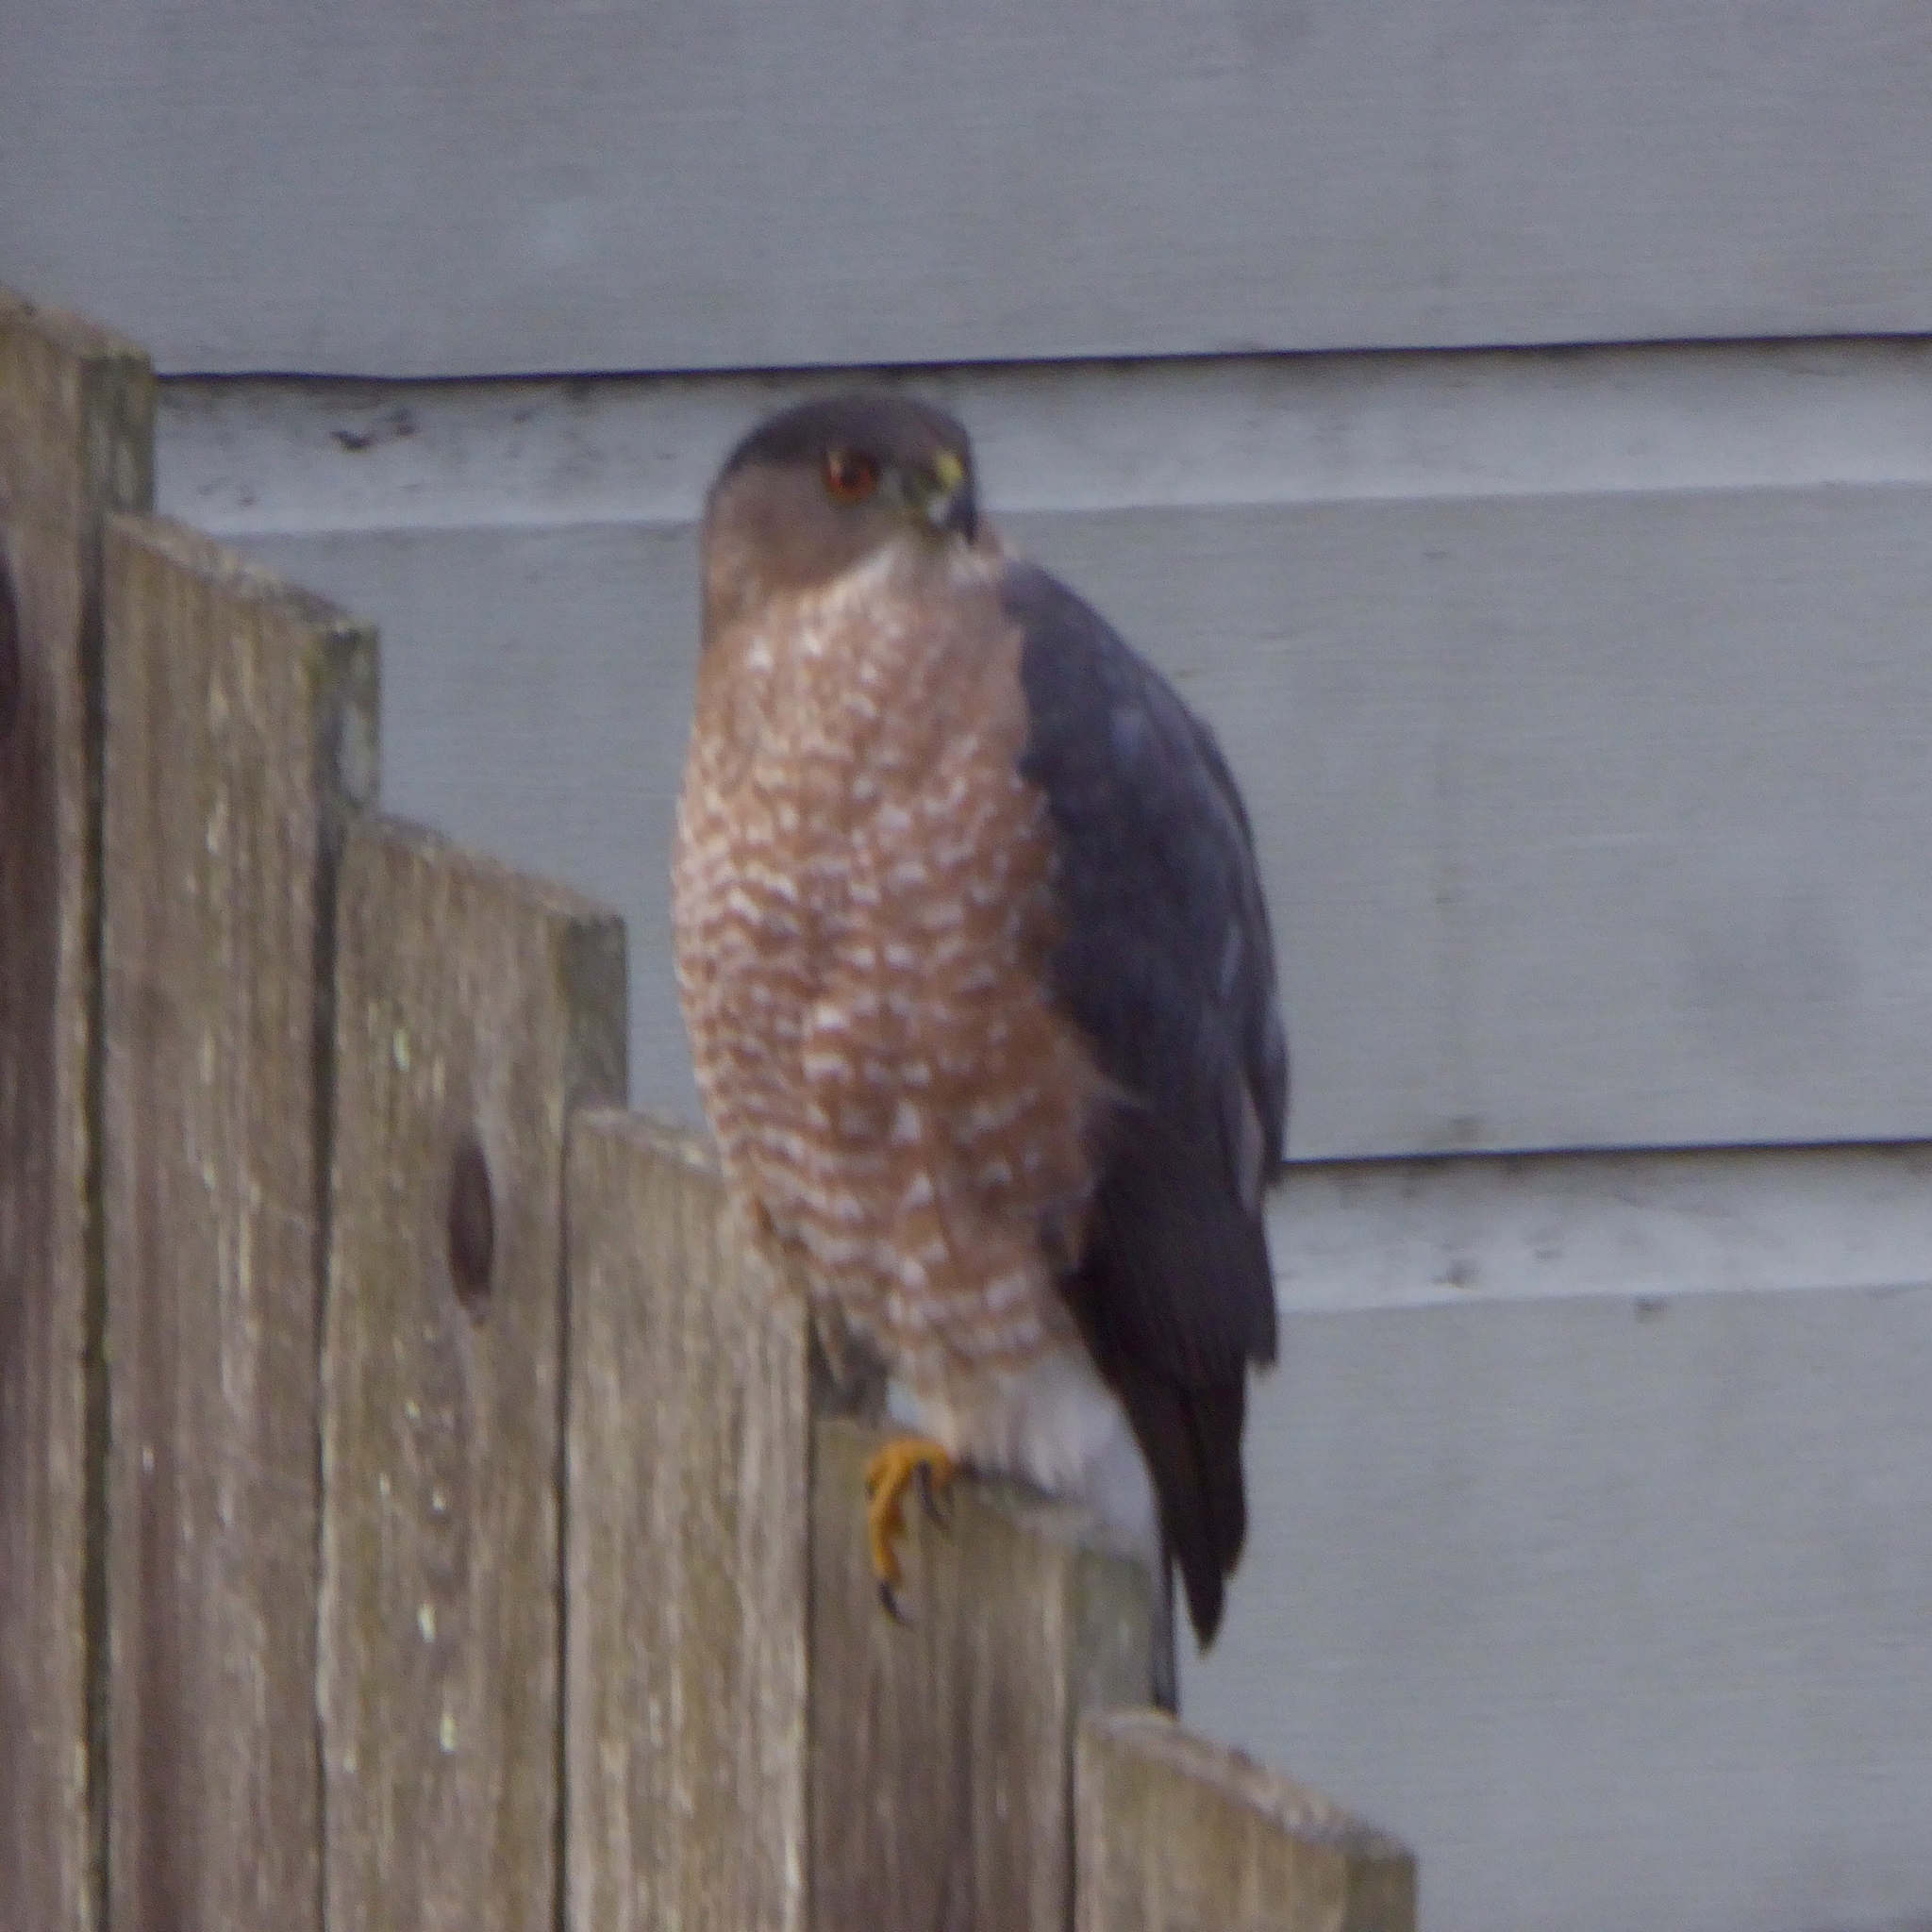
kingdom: Animalia
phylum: Chordata
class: Aves
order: Accipitriformes
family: Accipitridae
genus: Accipiter
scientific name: Accipiter cooperii
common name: Cooper's hawk
